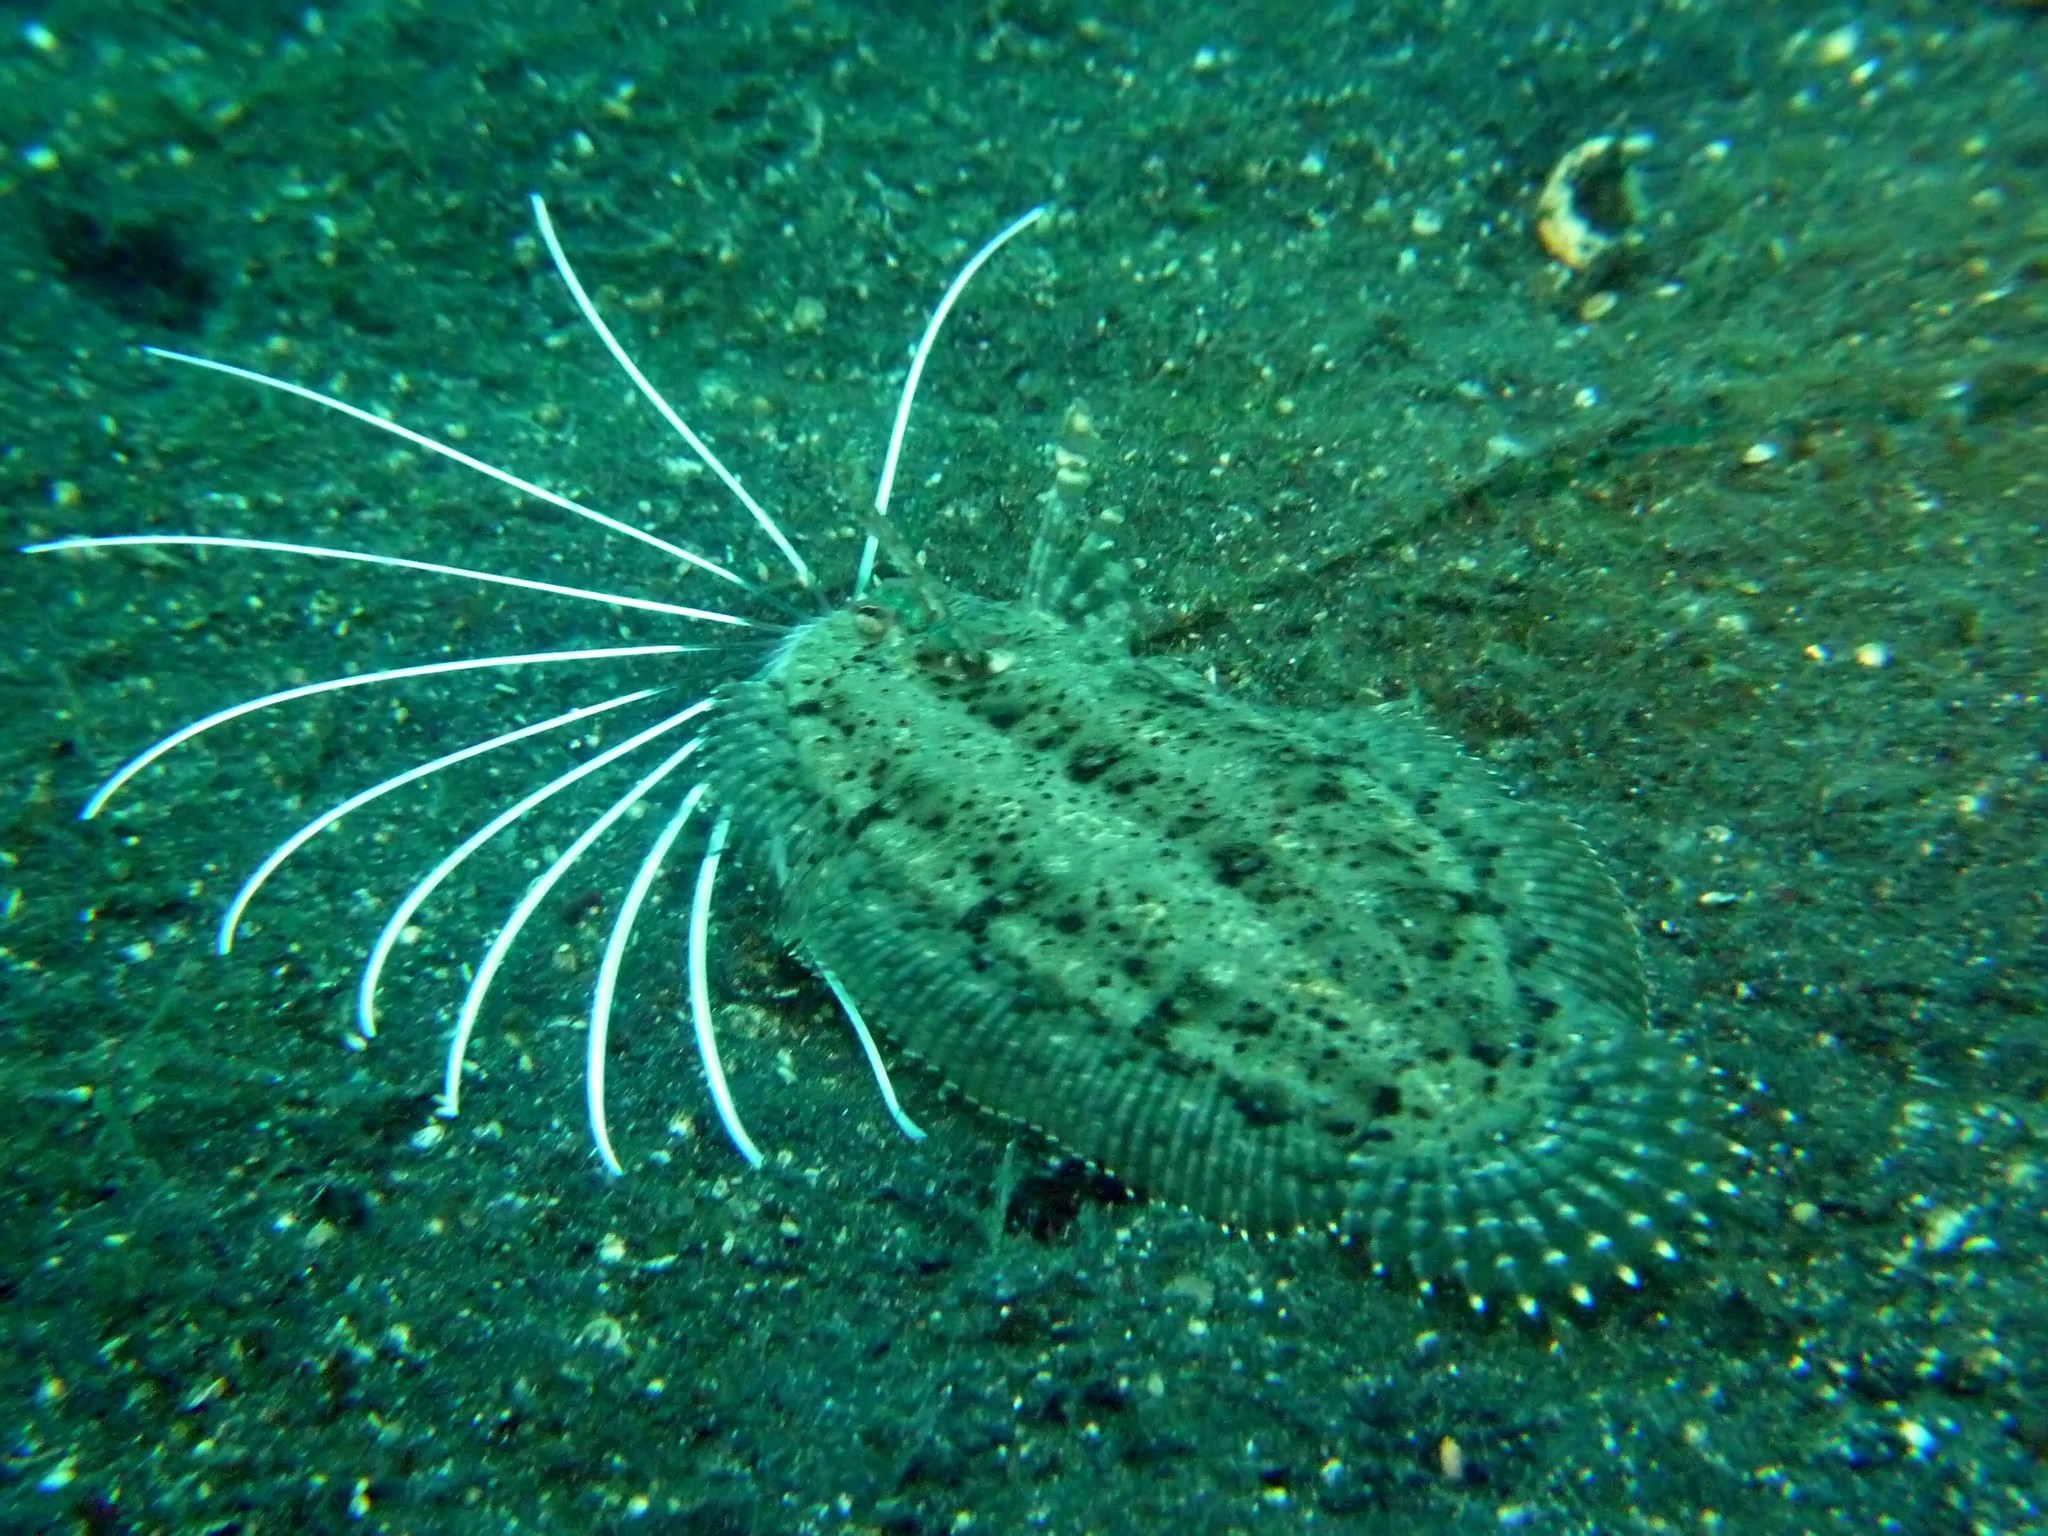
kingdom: Animalia
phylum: Chordata
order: Pleuronectiformes
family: Samaridae
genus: Samaris
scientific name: Samaris cristatus
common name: Cockatoo righteye flounder
